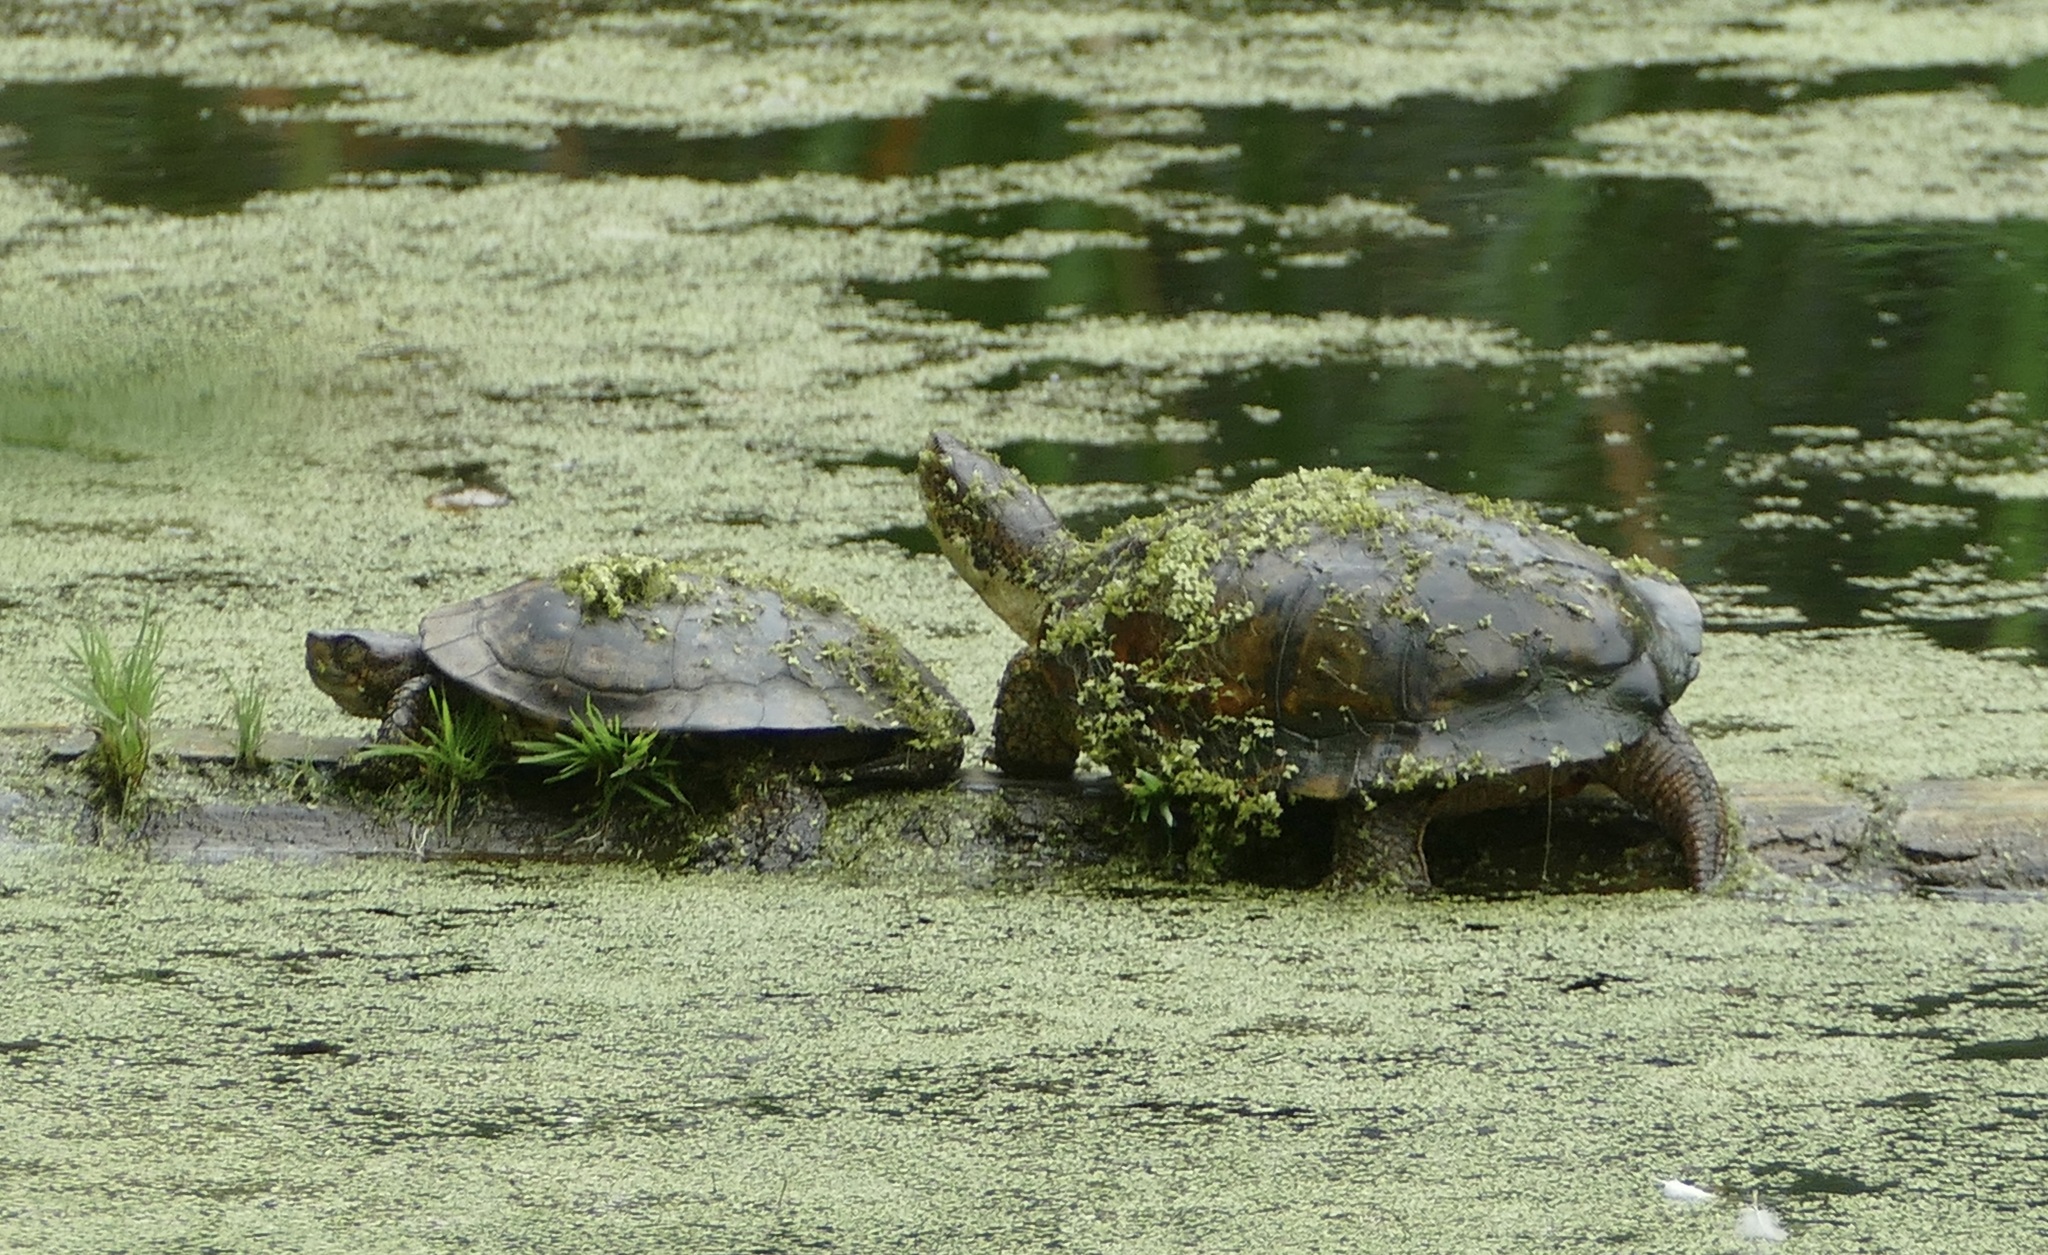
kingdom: Animalia
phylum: Chordata
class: Testudines
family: Emydidae
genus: Actinemys
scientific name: Actinemys marmorata
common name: Western pond turtle
